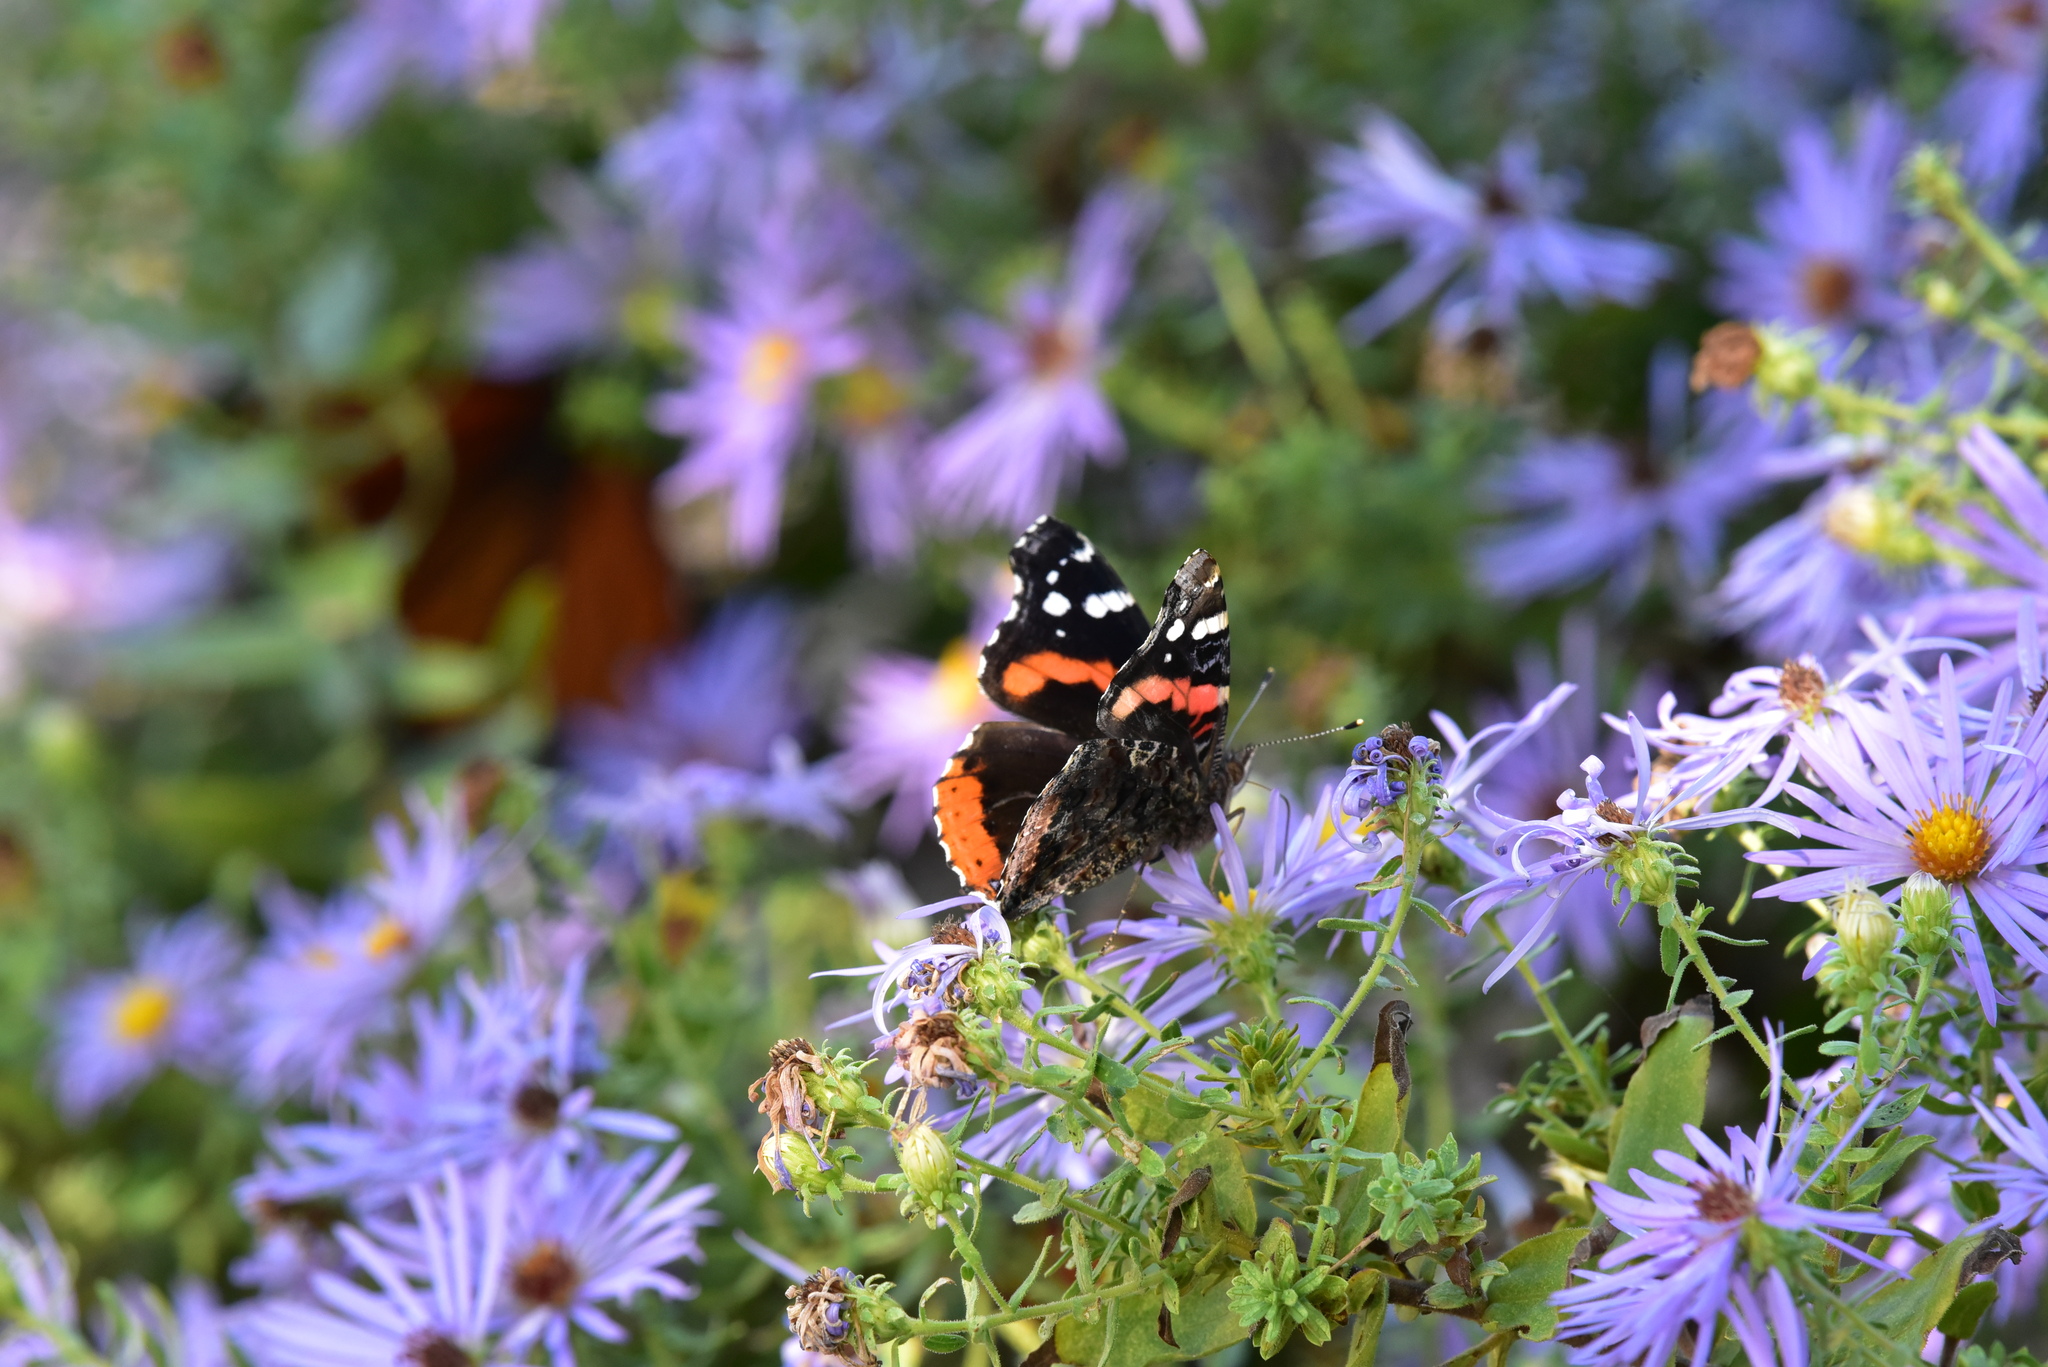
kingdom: Animalia
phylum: Arthropoda
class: Insecta
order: Lepidoptera
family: Nymphalidae
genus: Vanessa
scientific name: Vanessa atalanta
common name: Red admiral
